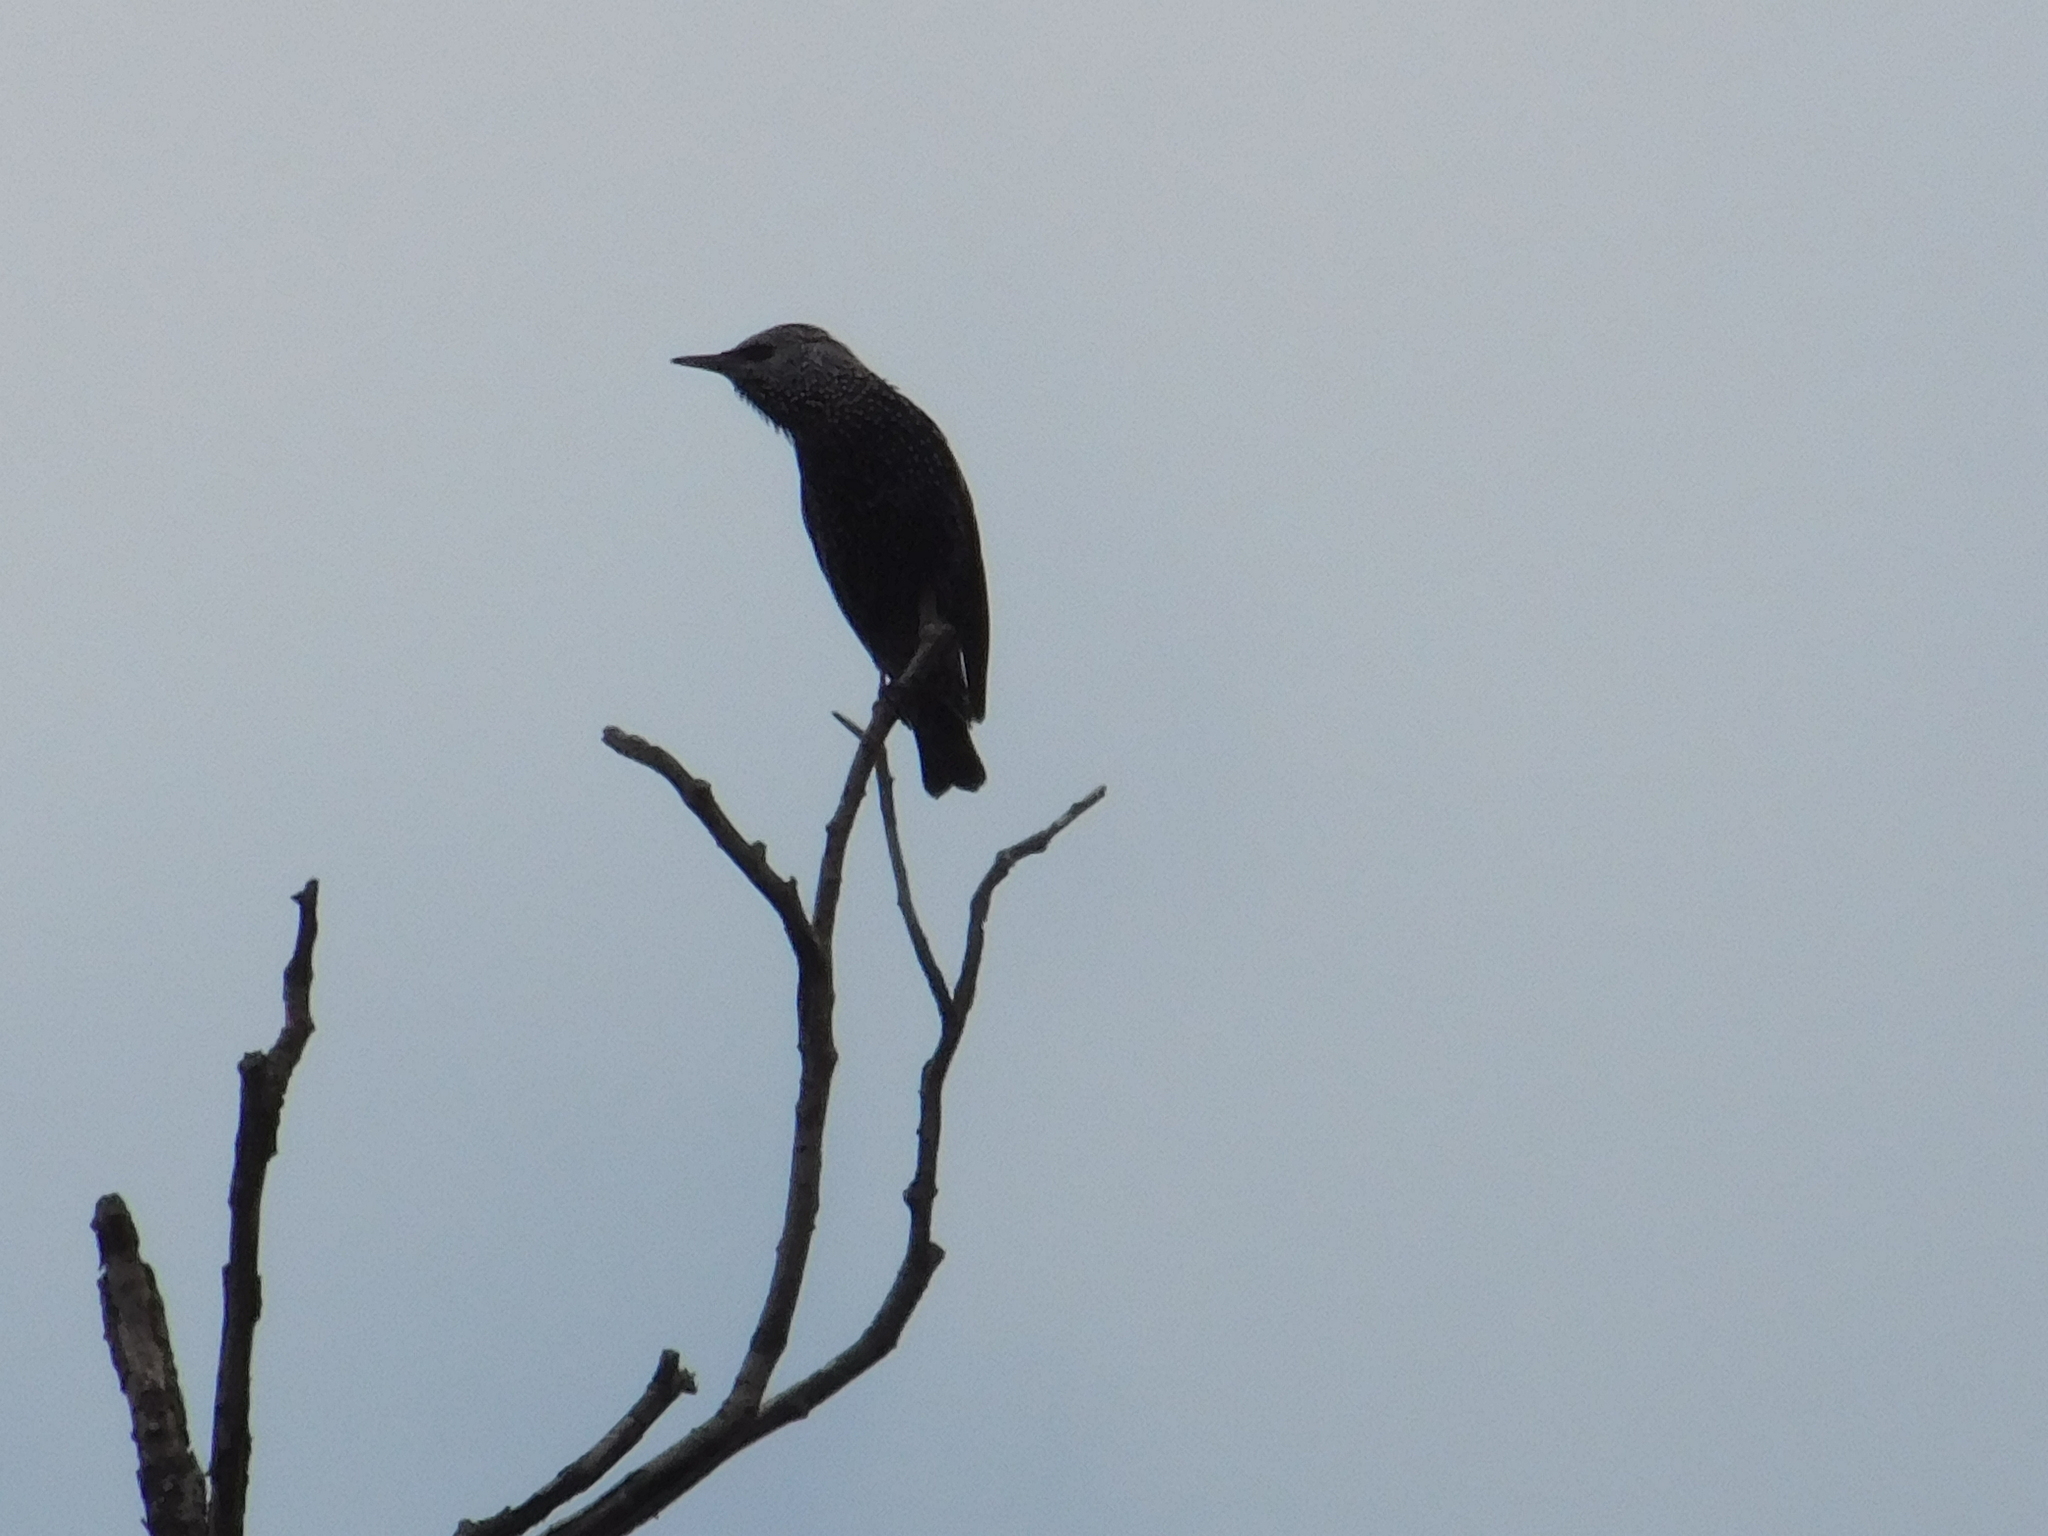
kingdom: Animalia
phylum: Chordata
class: Aves
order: Passeriformes
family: Sturnidae
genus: Sturnus
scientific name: Sturnus vulgaris
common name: Common starling
